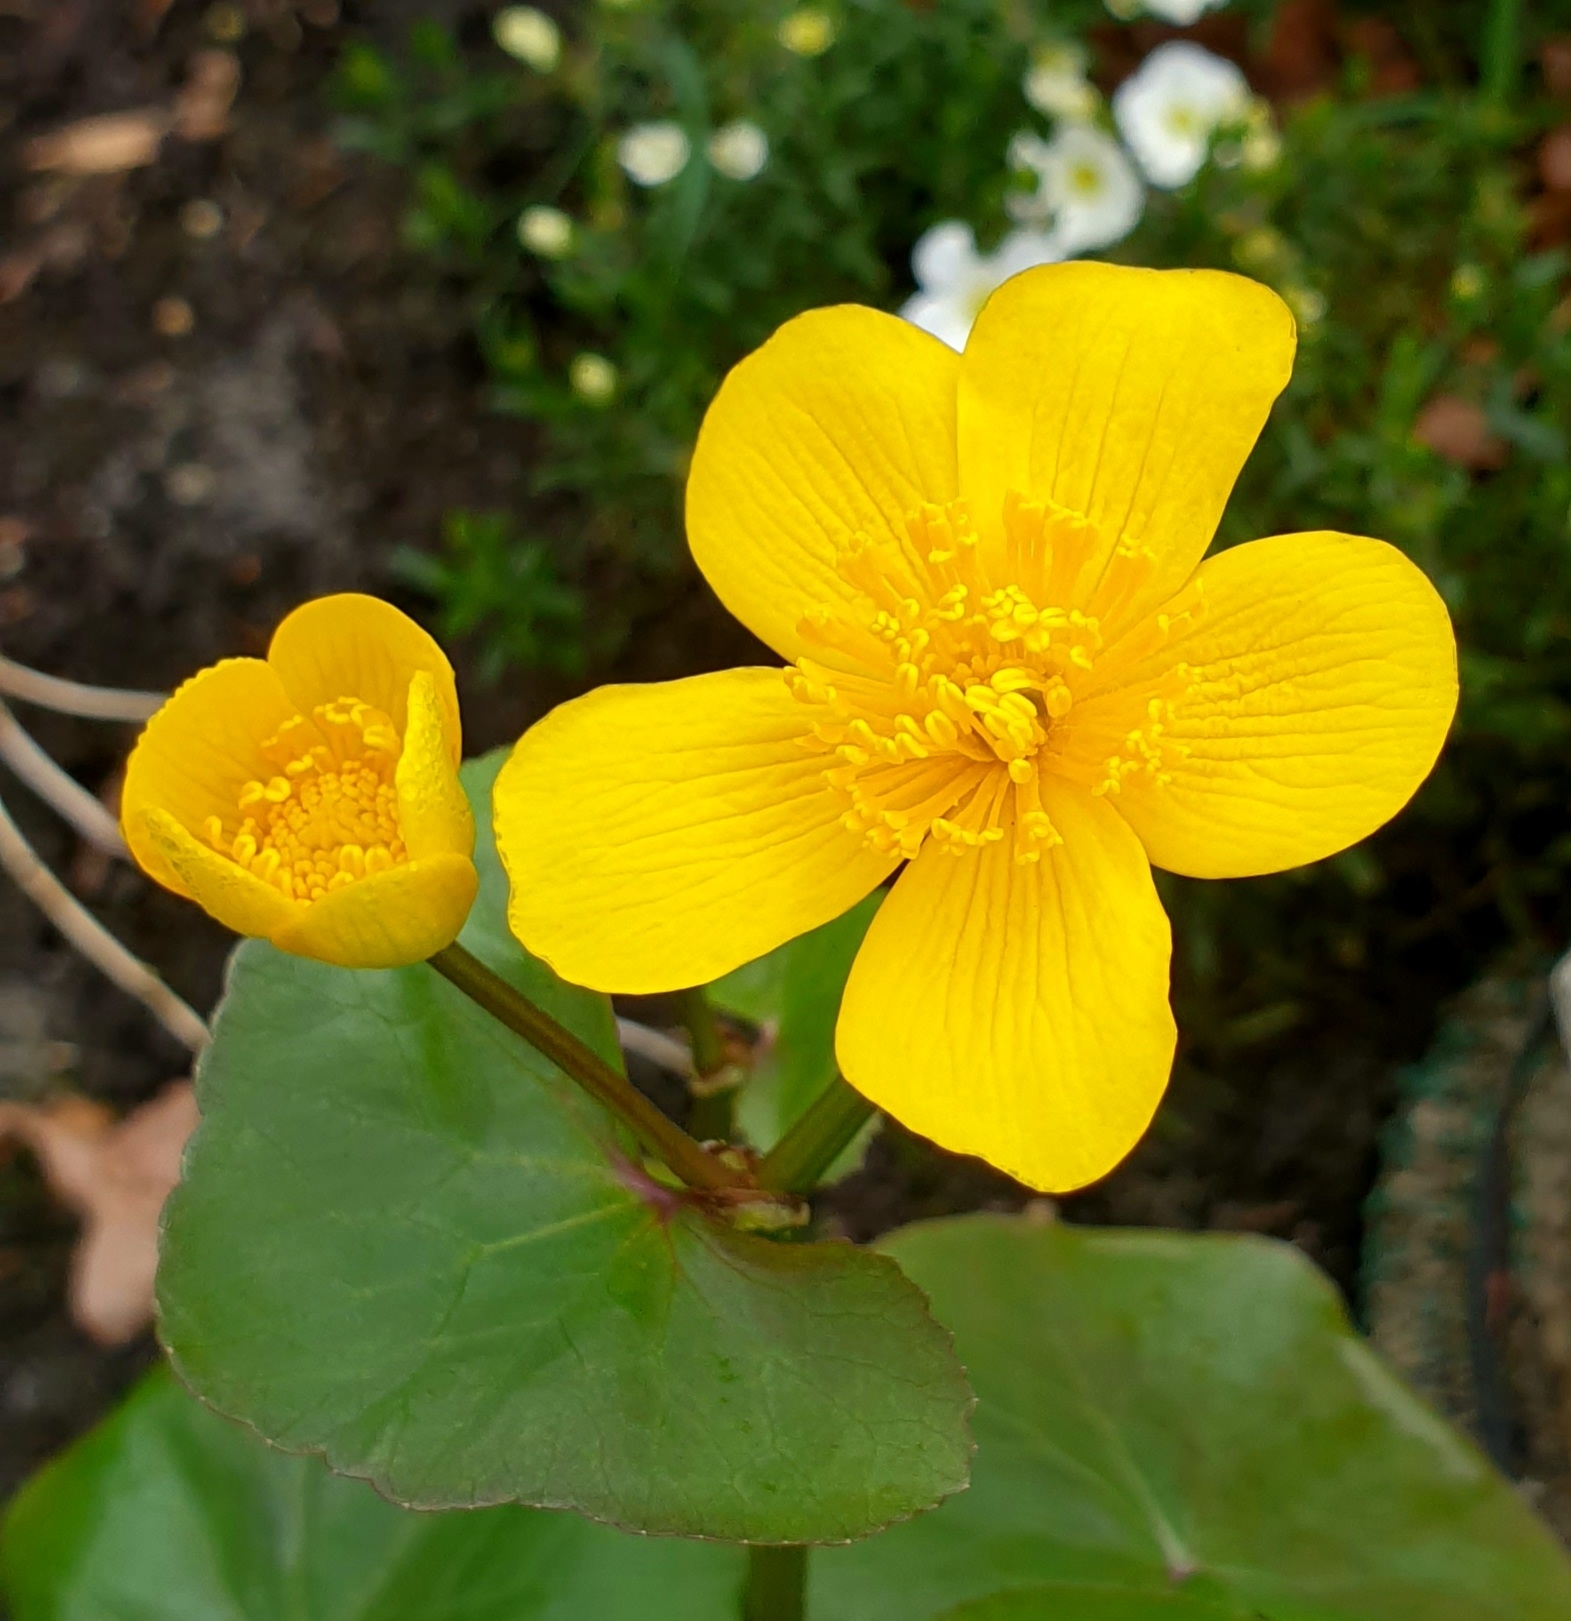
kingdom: Plantae
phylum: Tracheophyta
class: Magnoliopsida
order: Ranunculales
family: Ranunculaceae
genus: Caltha
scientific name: Caltha palustris
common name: Marsh marigold
